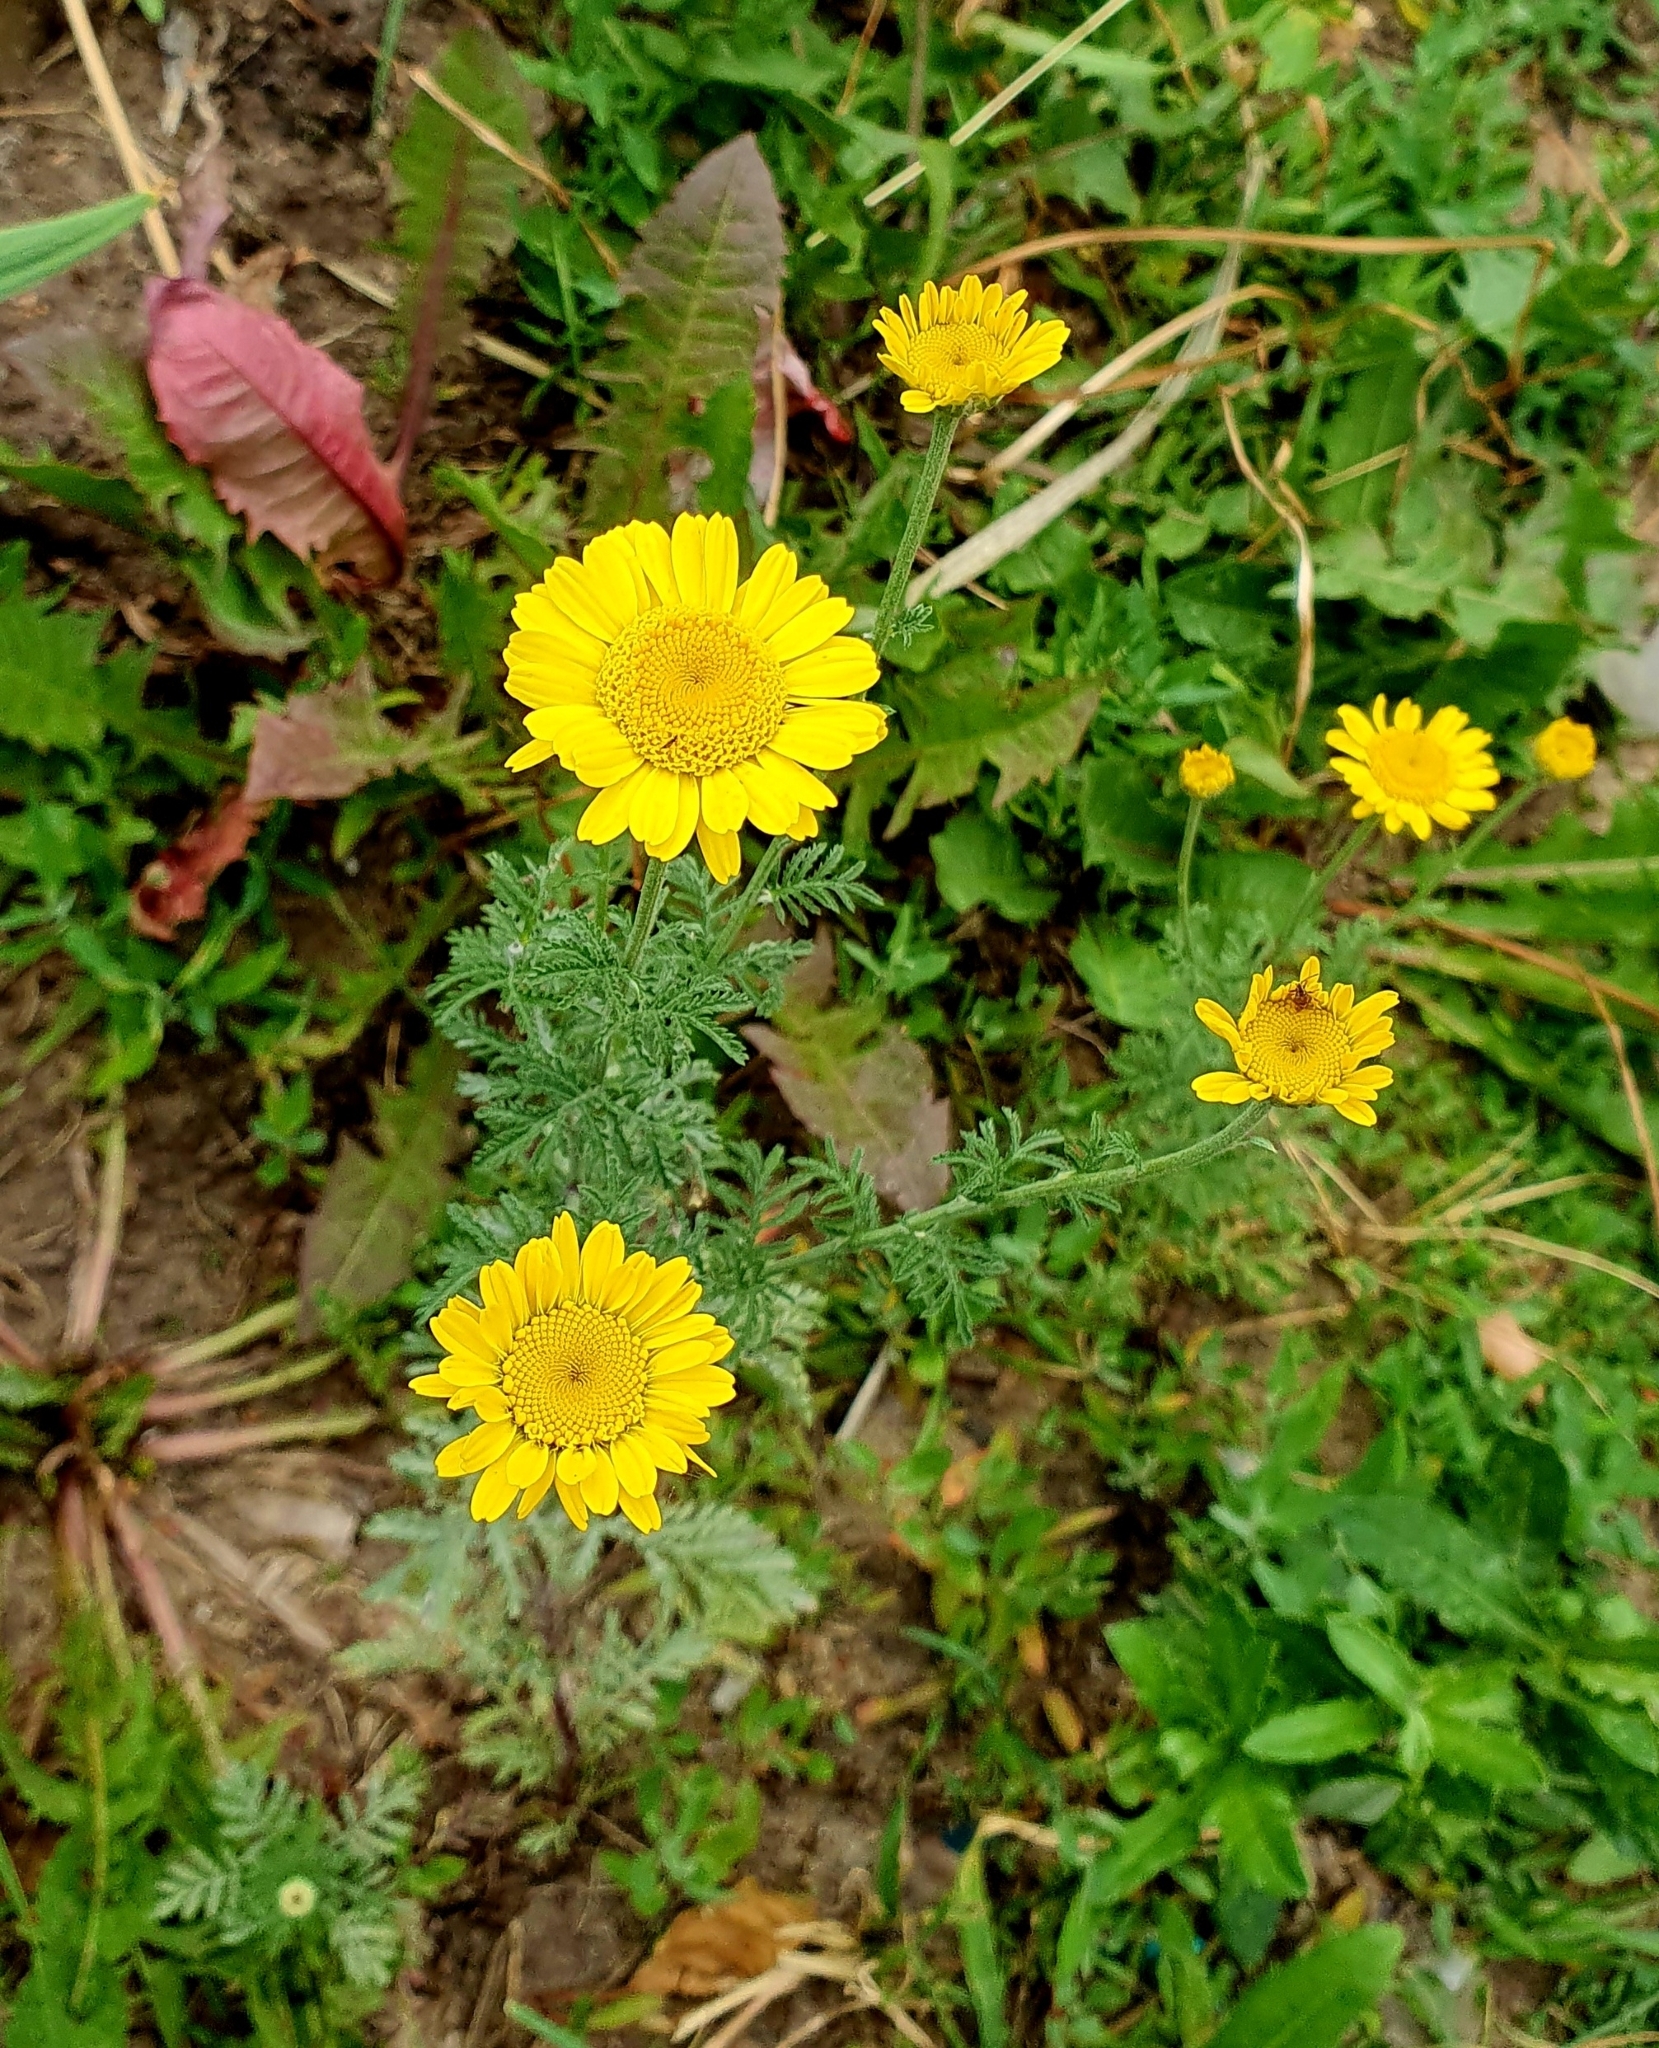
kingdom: Plantae
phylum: Tracheophyta
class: Magnoliopsida
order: Asterales
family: Asteraceae
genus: Cota
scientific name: Cota tinctoria
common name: Golden chamomile
